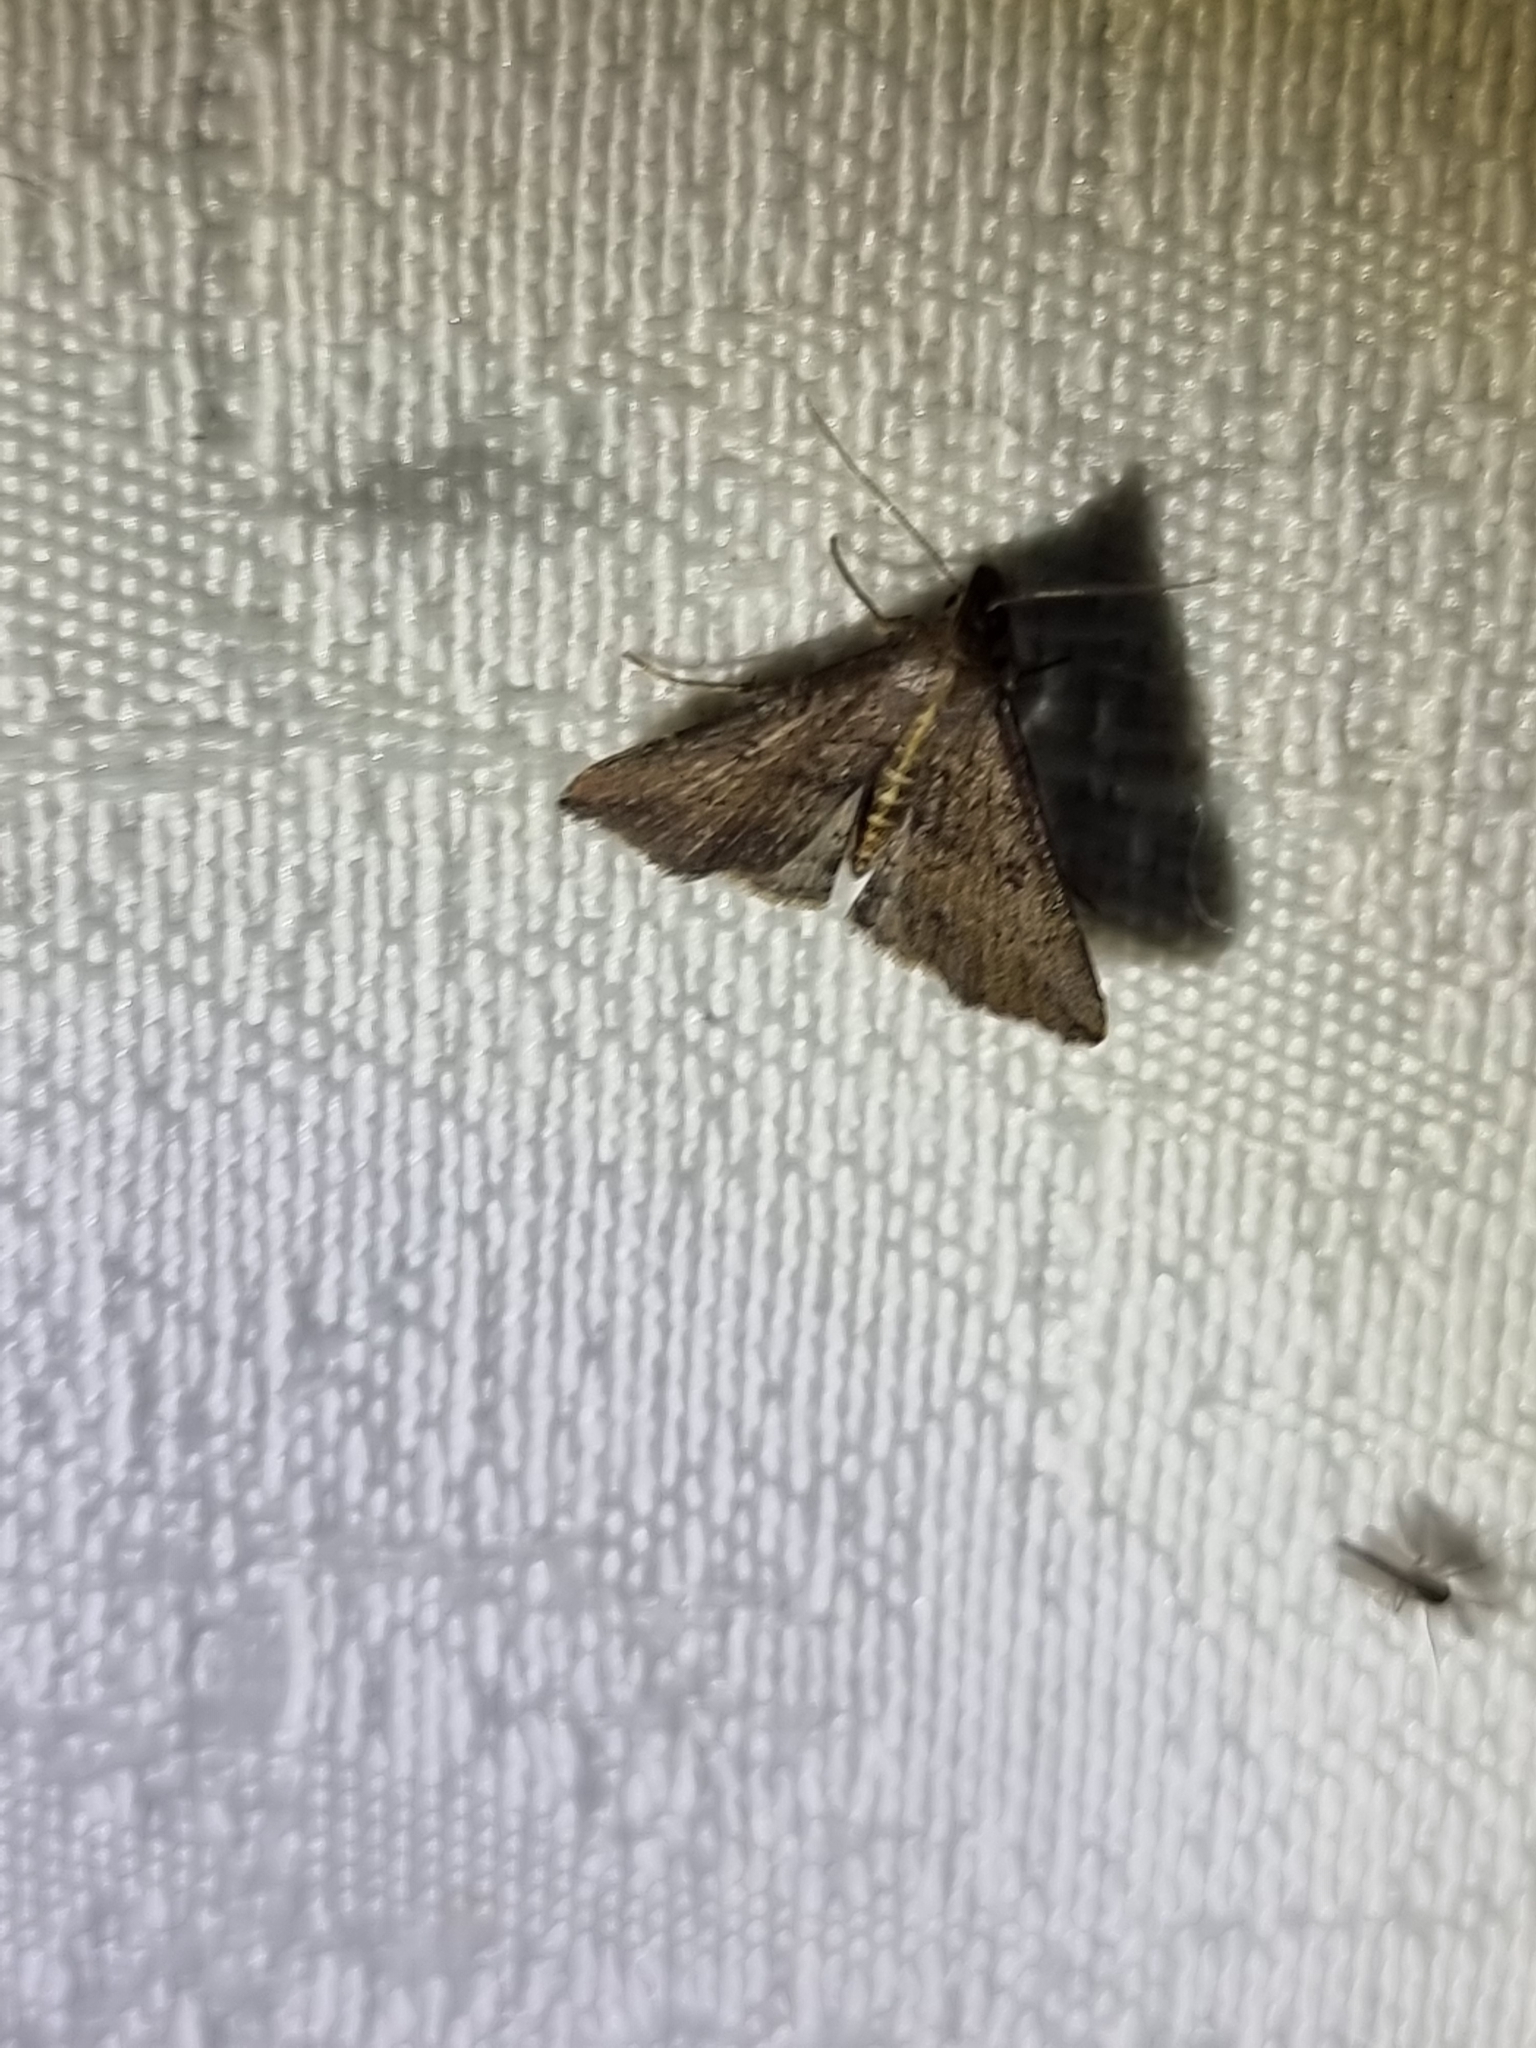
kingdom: Animalia
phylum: Arthropoda
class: Insecta
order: Lepidoptera
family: Erebidae
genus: Hypena
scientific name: Hypena umbrifera
